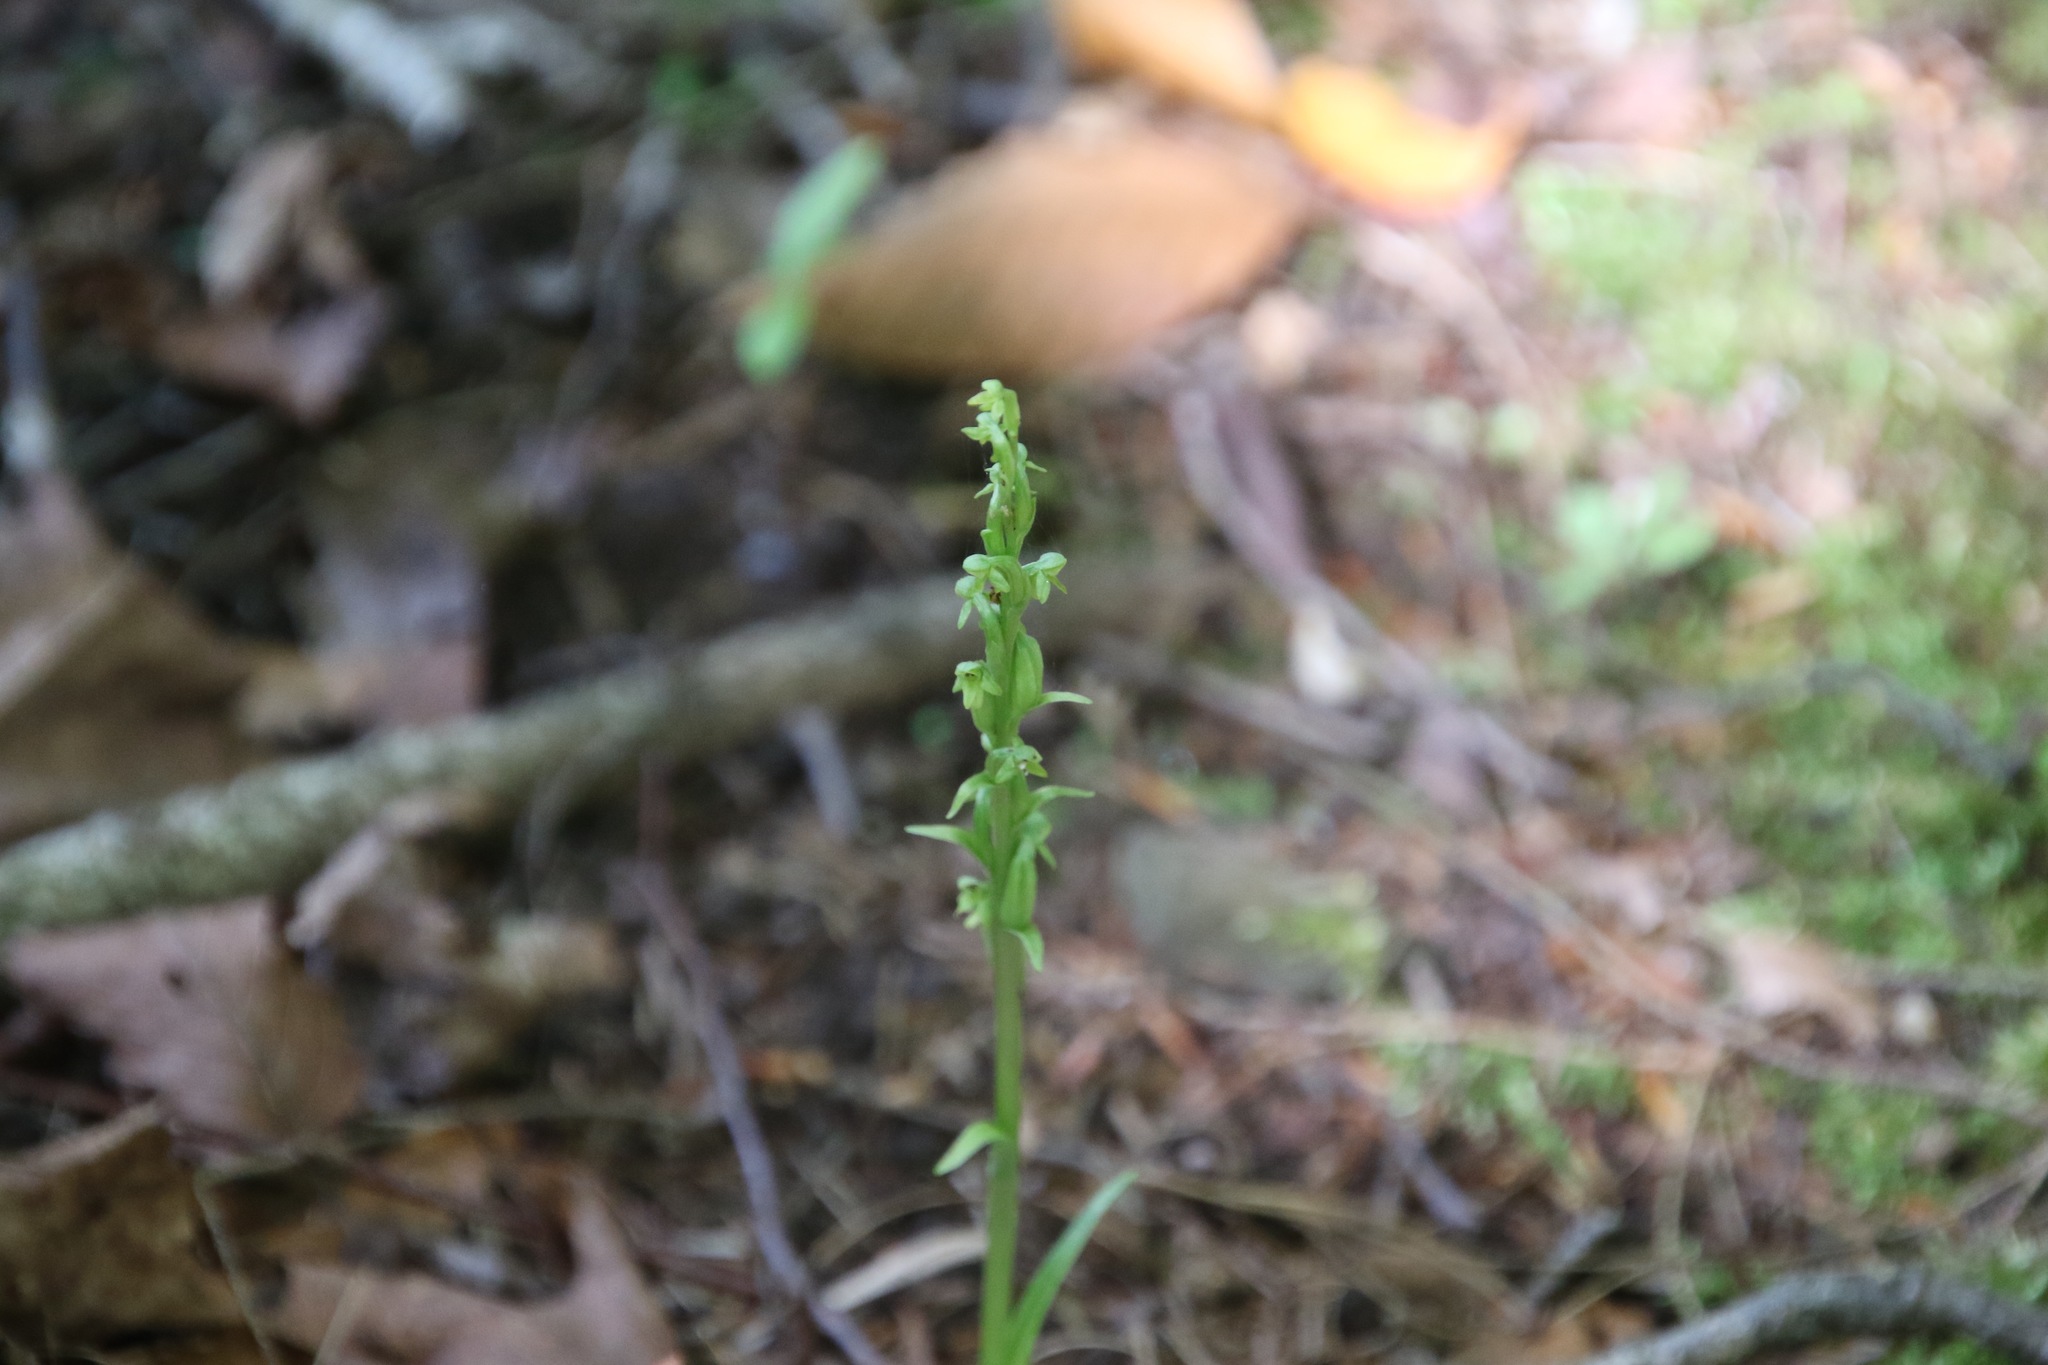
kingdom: Plantae
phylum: Tracheophyta
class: Liliopsida
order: Asparagales
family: Orchidaceae
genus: Platanthera
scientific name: Platanthera aquilonis
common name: Northern green orchid
